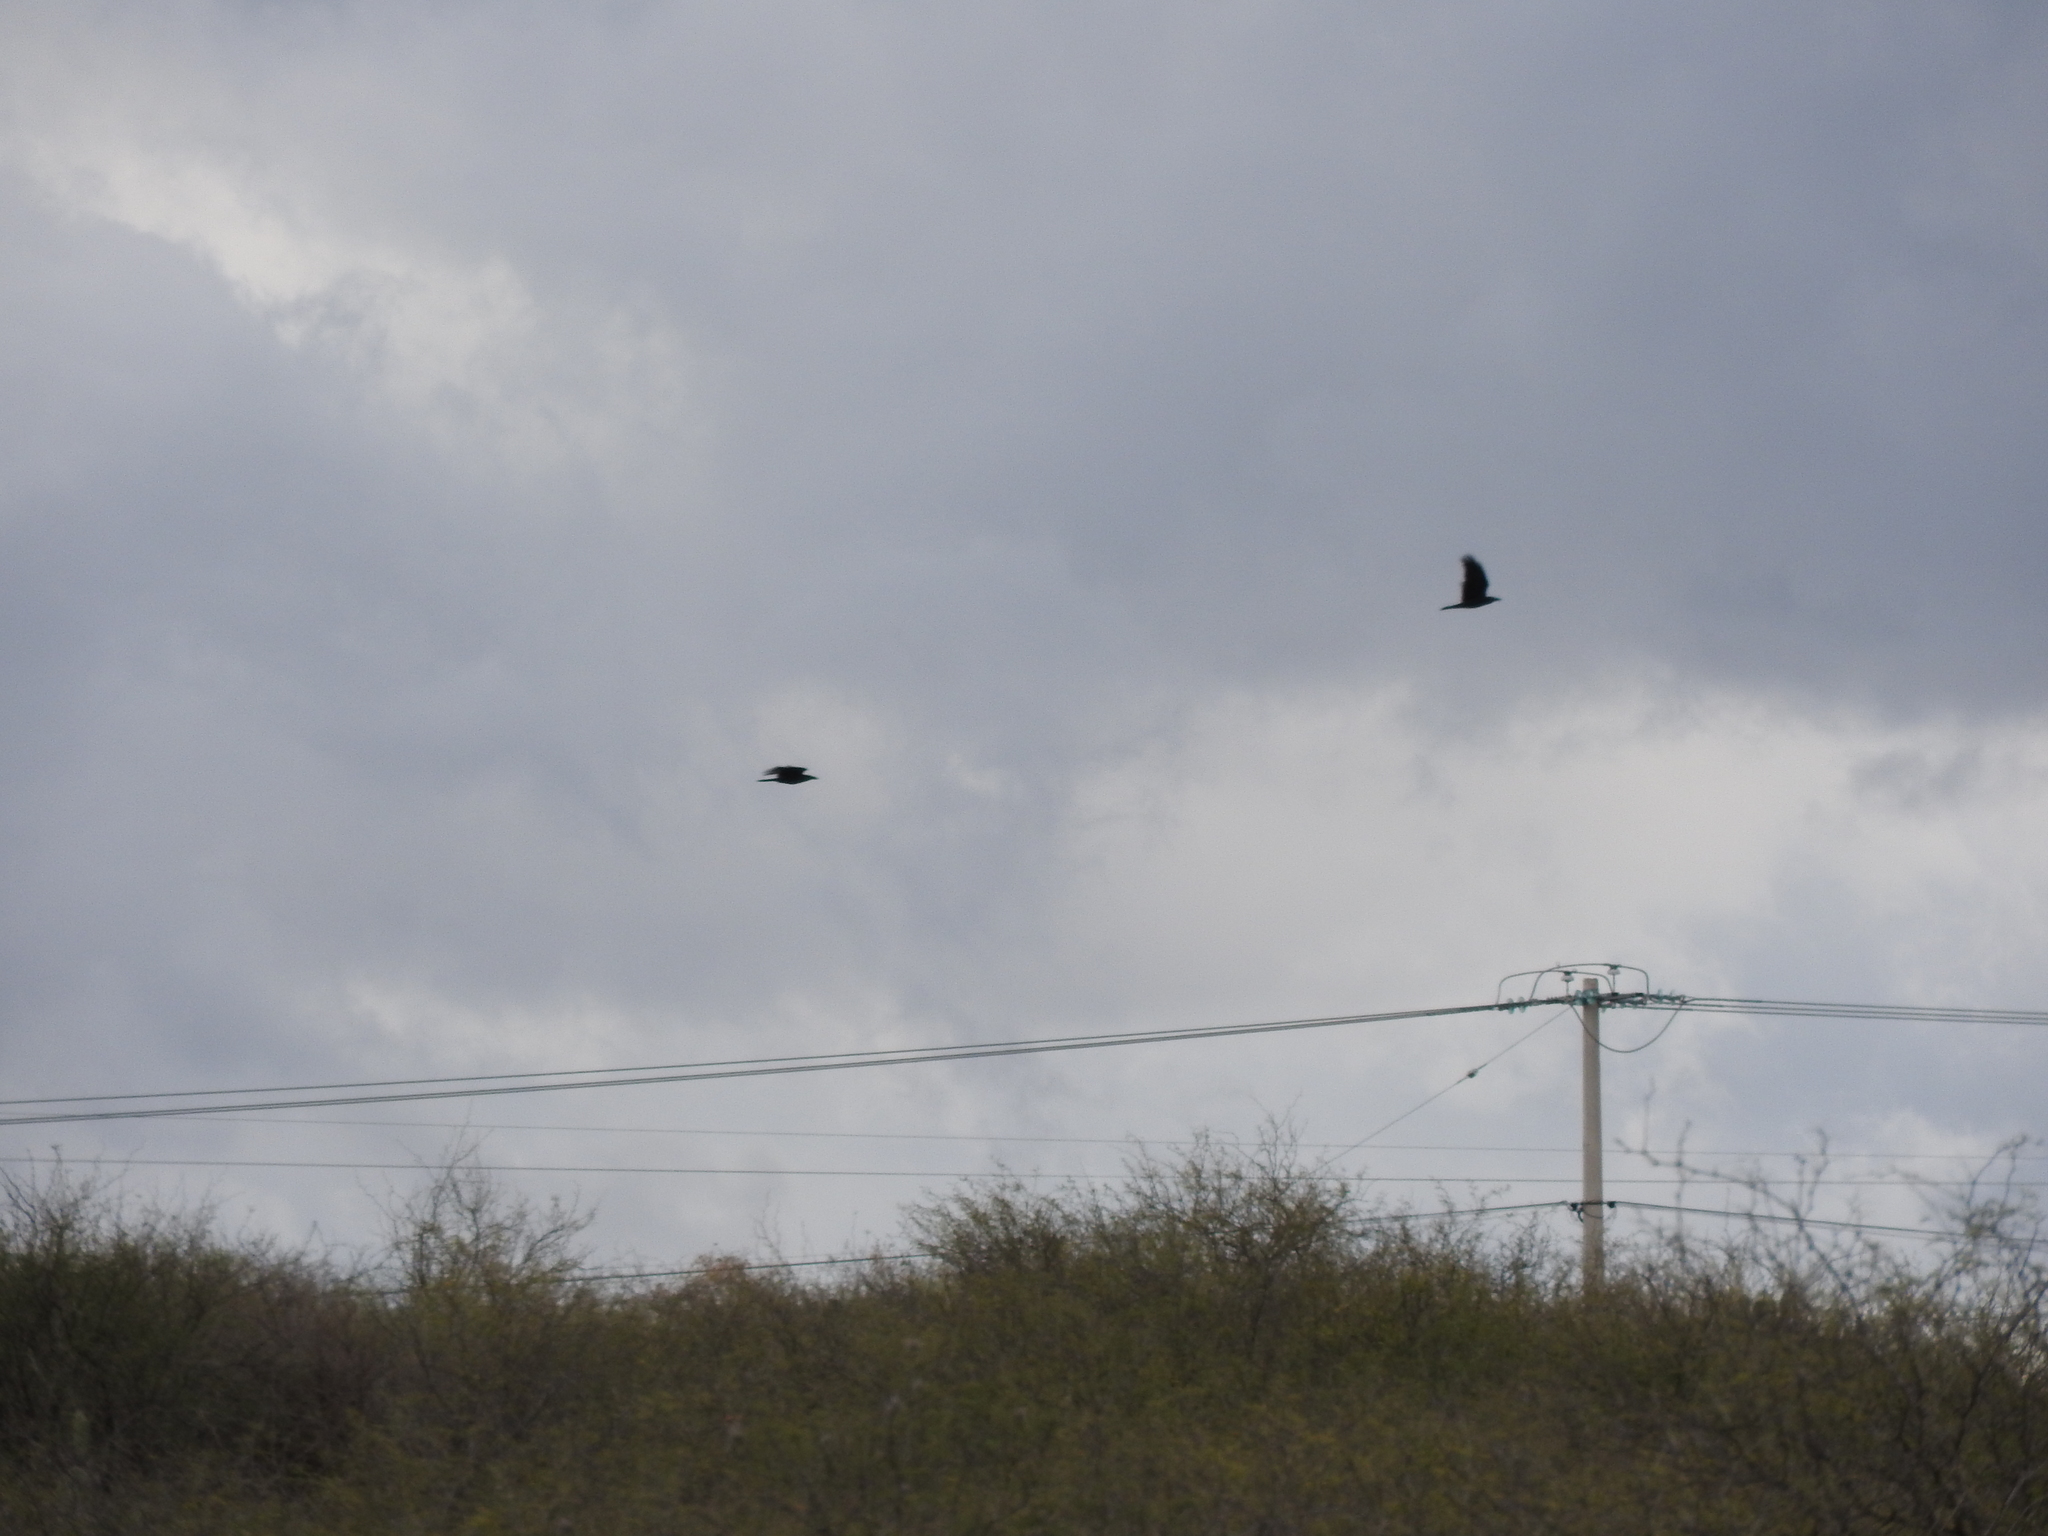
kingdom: Animalia
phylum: Chordata
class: Aves
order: Passeriformes
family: Corvidae
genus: Corvus
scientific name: Corvus corax
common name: Common raven
